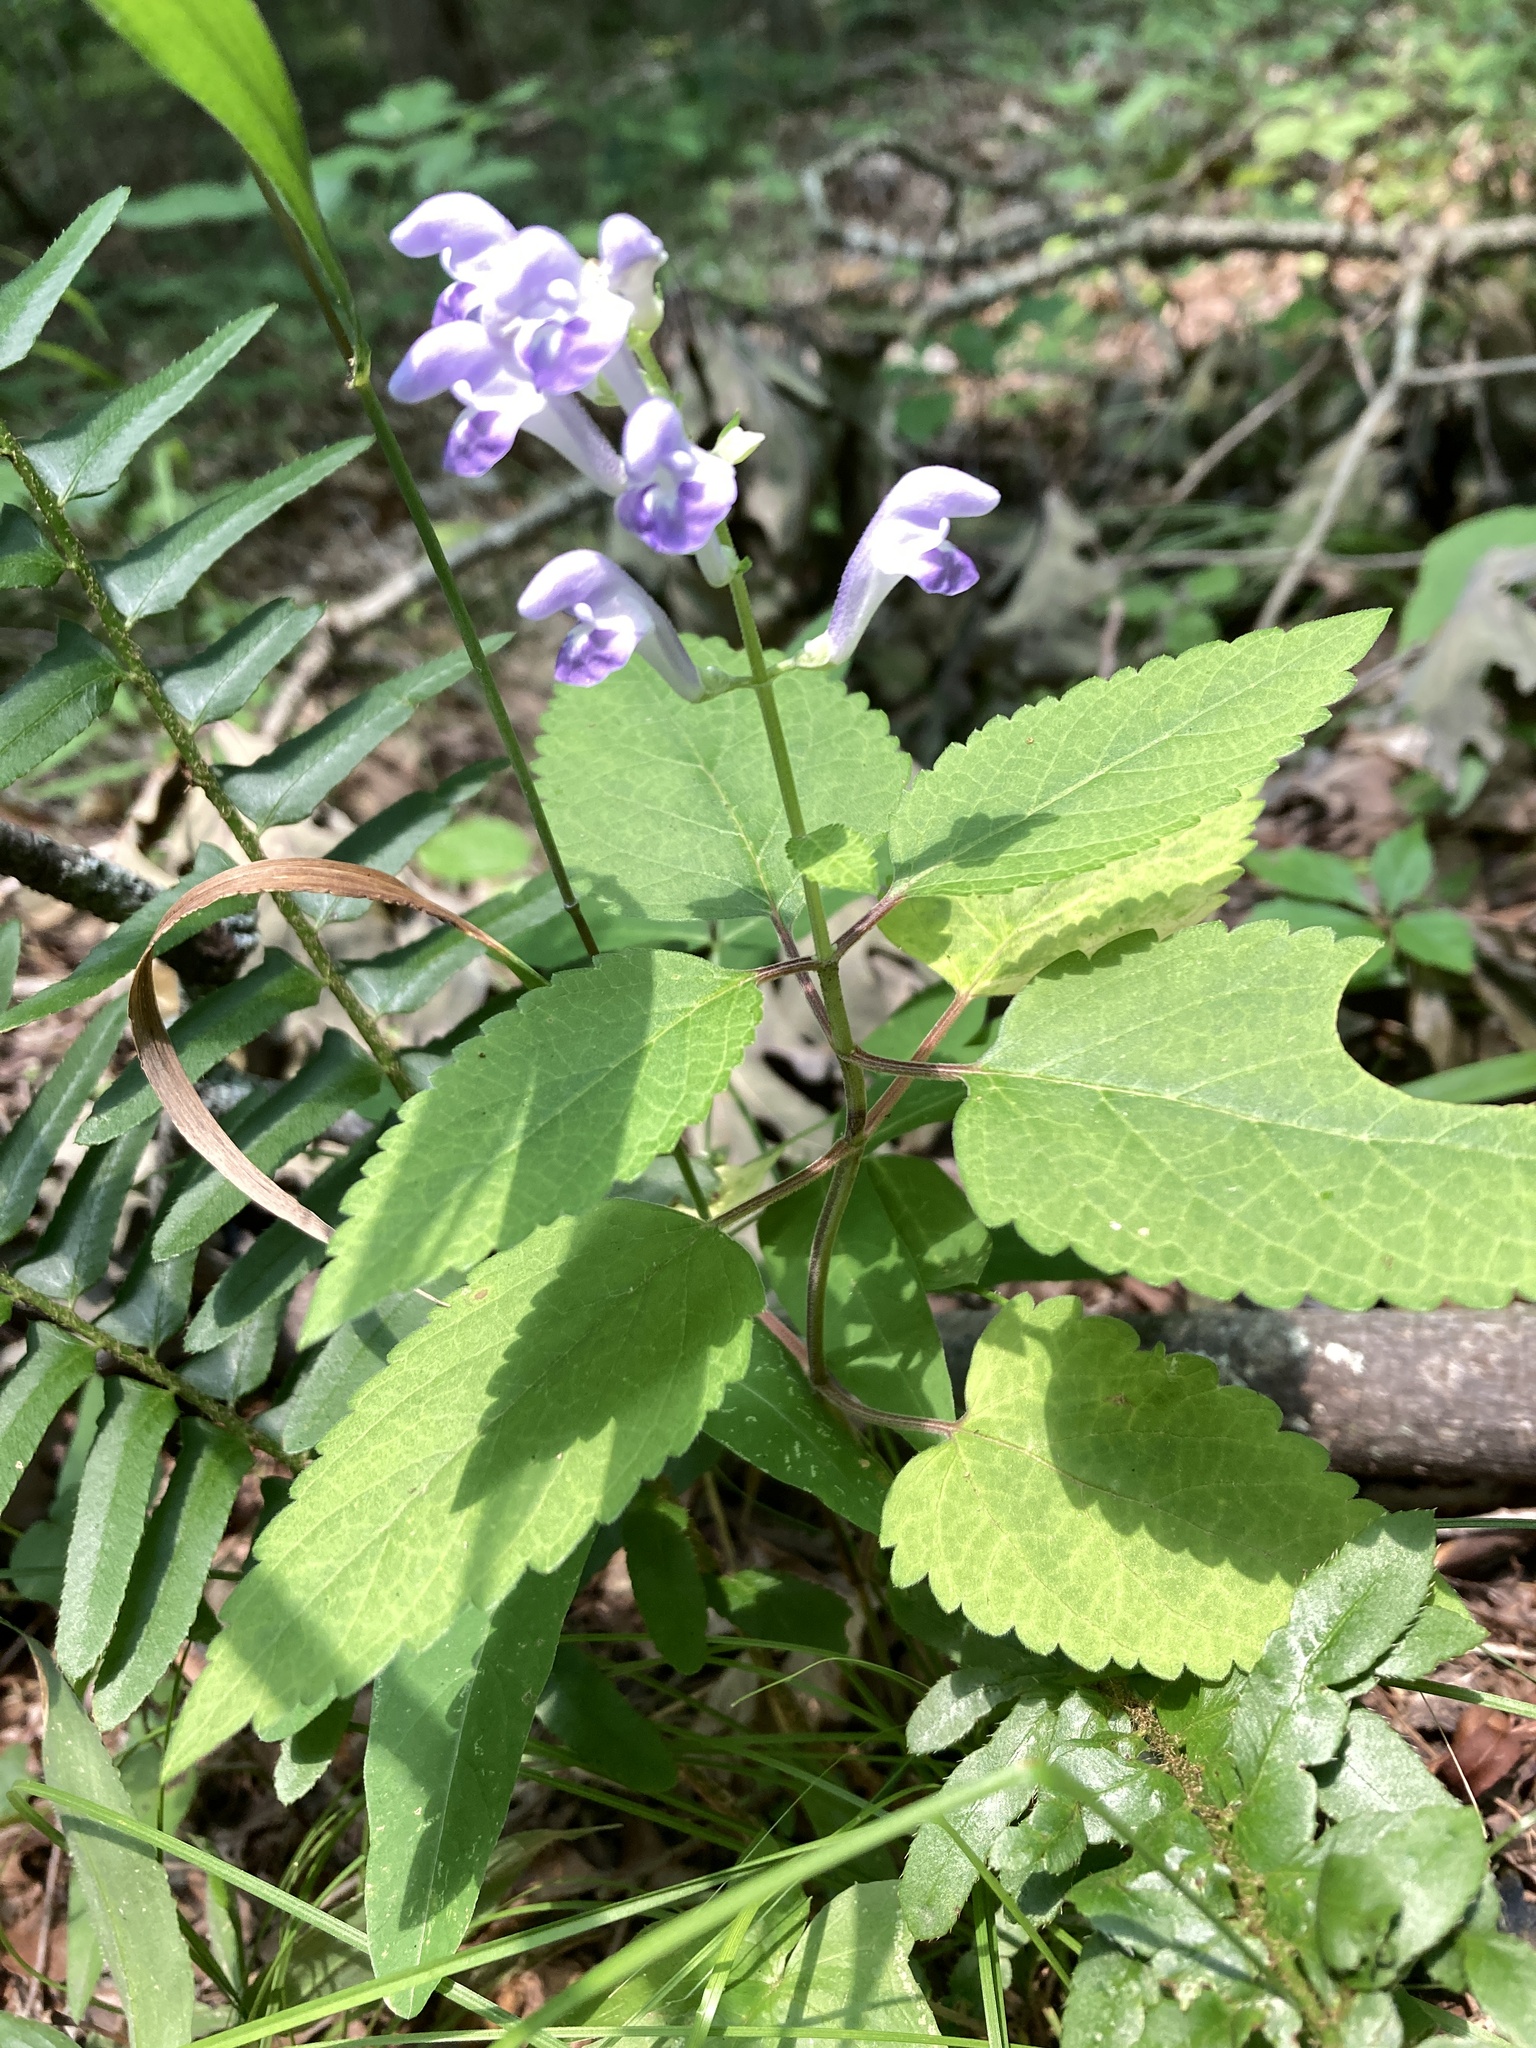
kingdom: Plantae
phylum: Tracheophyta
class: Magnoliopsida
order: Lamiales
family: Lamiaceae
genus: Scutellaria
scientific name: Scutellaria incana
